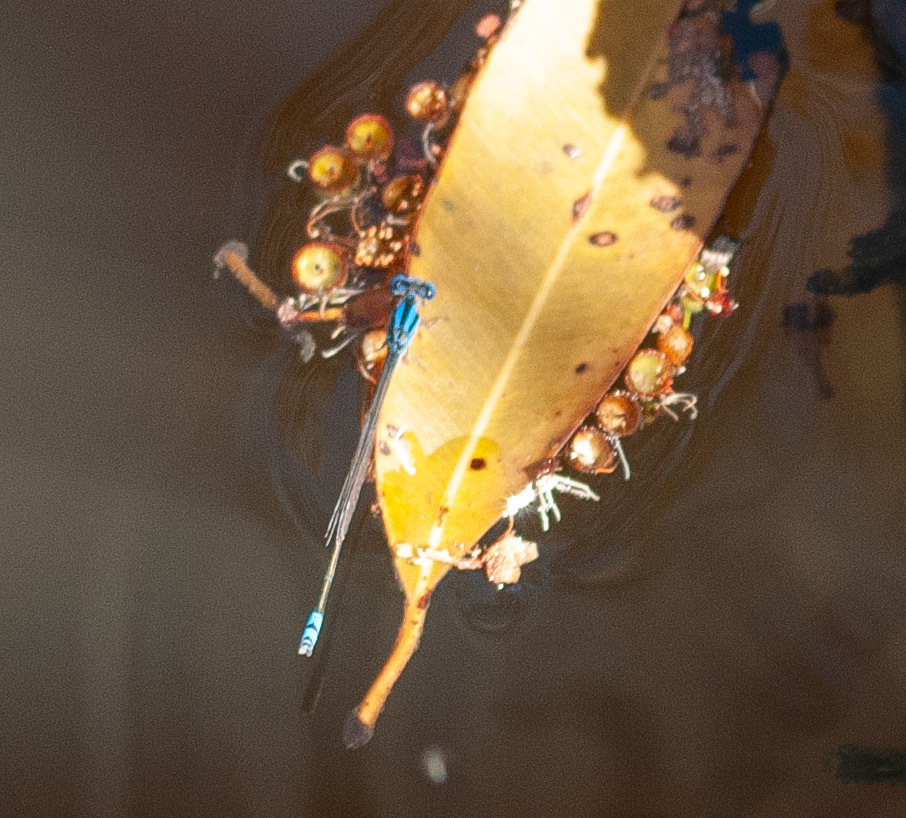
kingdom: Animalia
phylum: Arthropoda
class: Insecta
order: Odonata
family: Coenagrionidae
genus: Pseudagrion
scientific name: Pseudagrion microcephalum
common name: Blue riverdamsel
